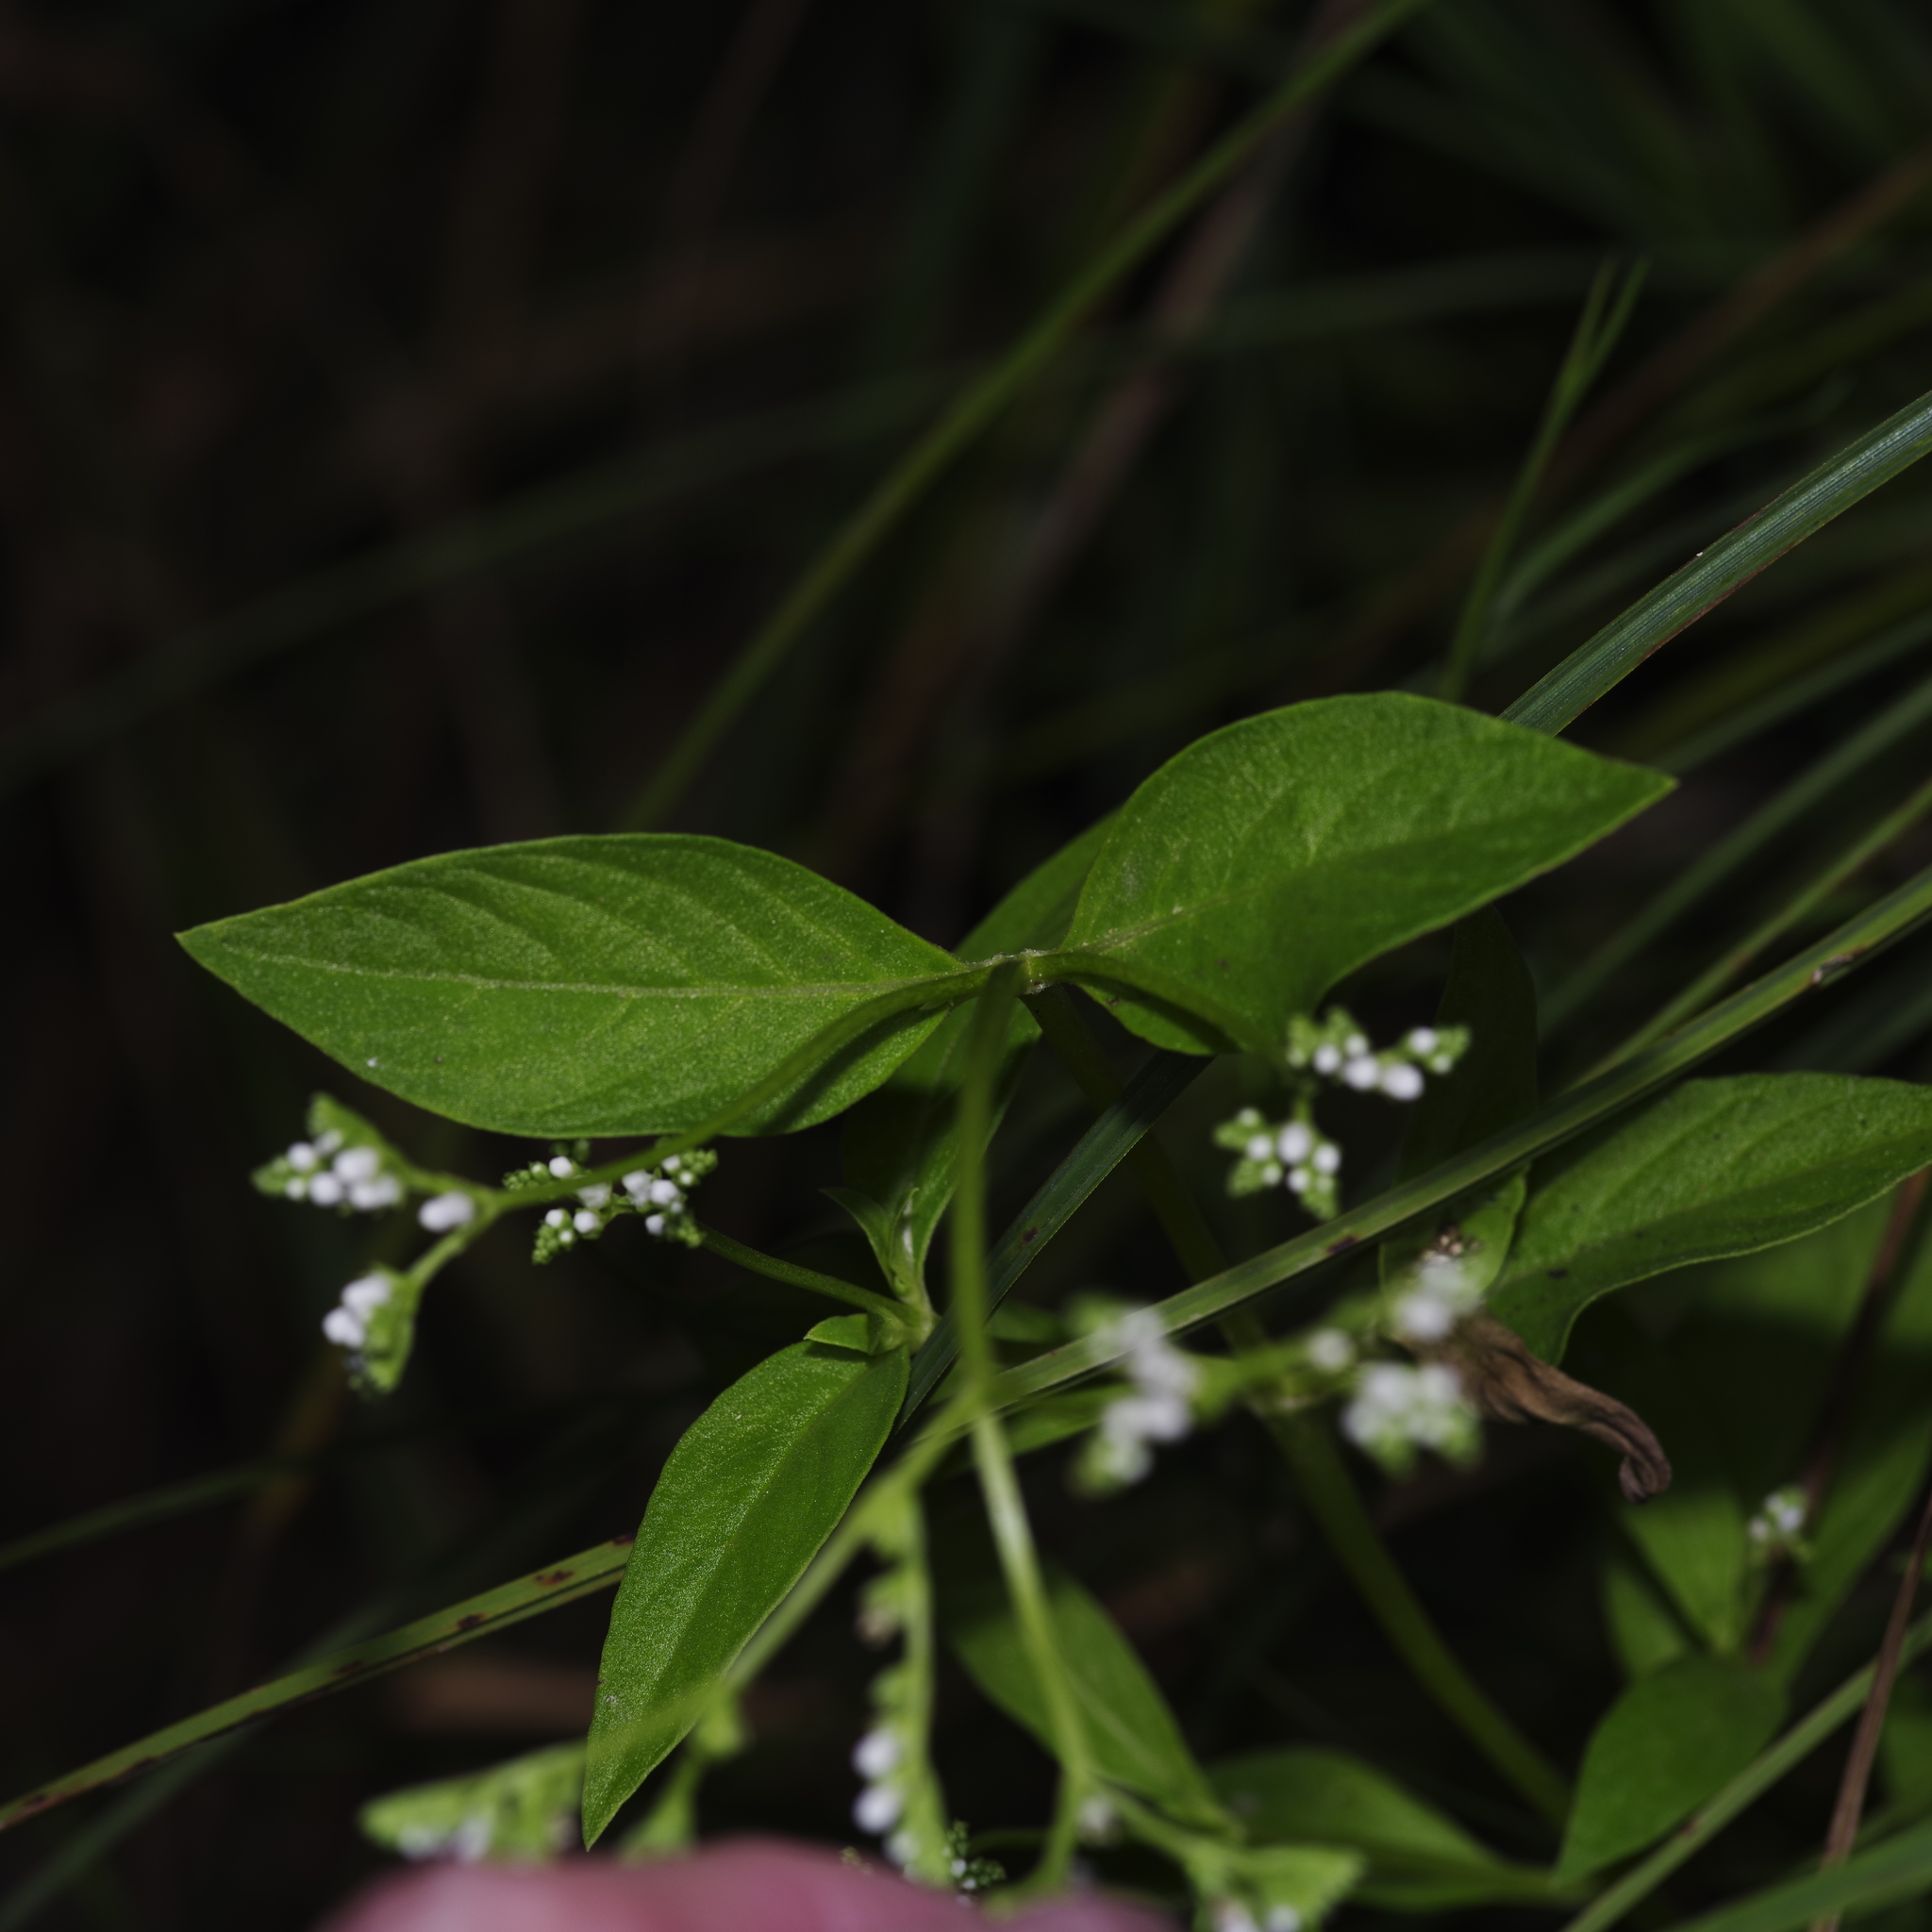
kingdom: Plantae
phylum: Tracheophyta
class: Magnoliopsida
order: Gentianales
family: Loganiaceae
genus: Mitreola
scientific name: Mitreola petiolata
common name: Lax hornpod
